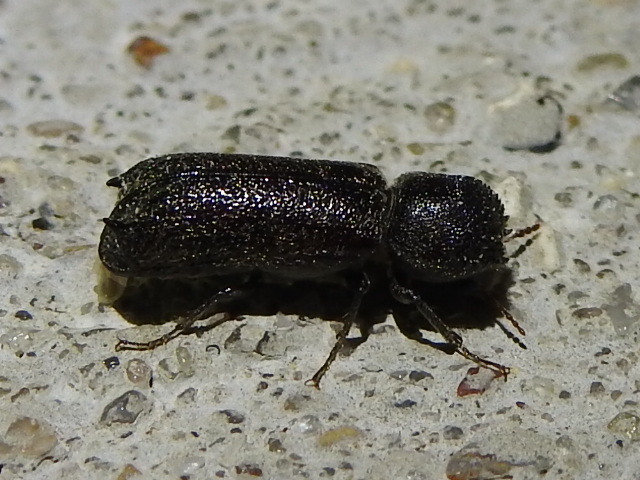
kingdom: Animalia
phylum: Arthropoda
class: Insecta
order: Coleoptera
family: Bostrichidae
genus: Amphicerus
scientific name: Amphicerus bicaudatus
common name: Apple twig borer
